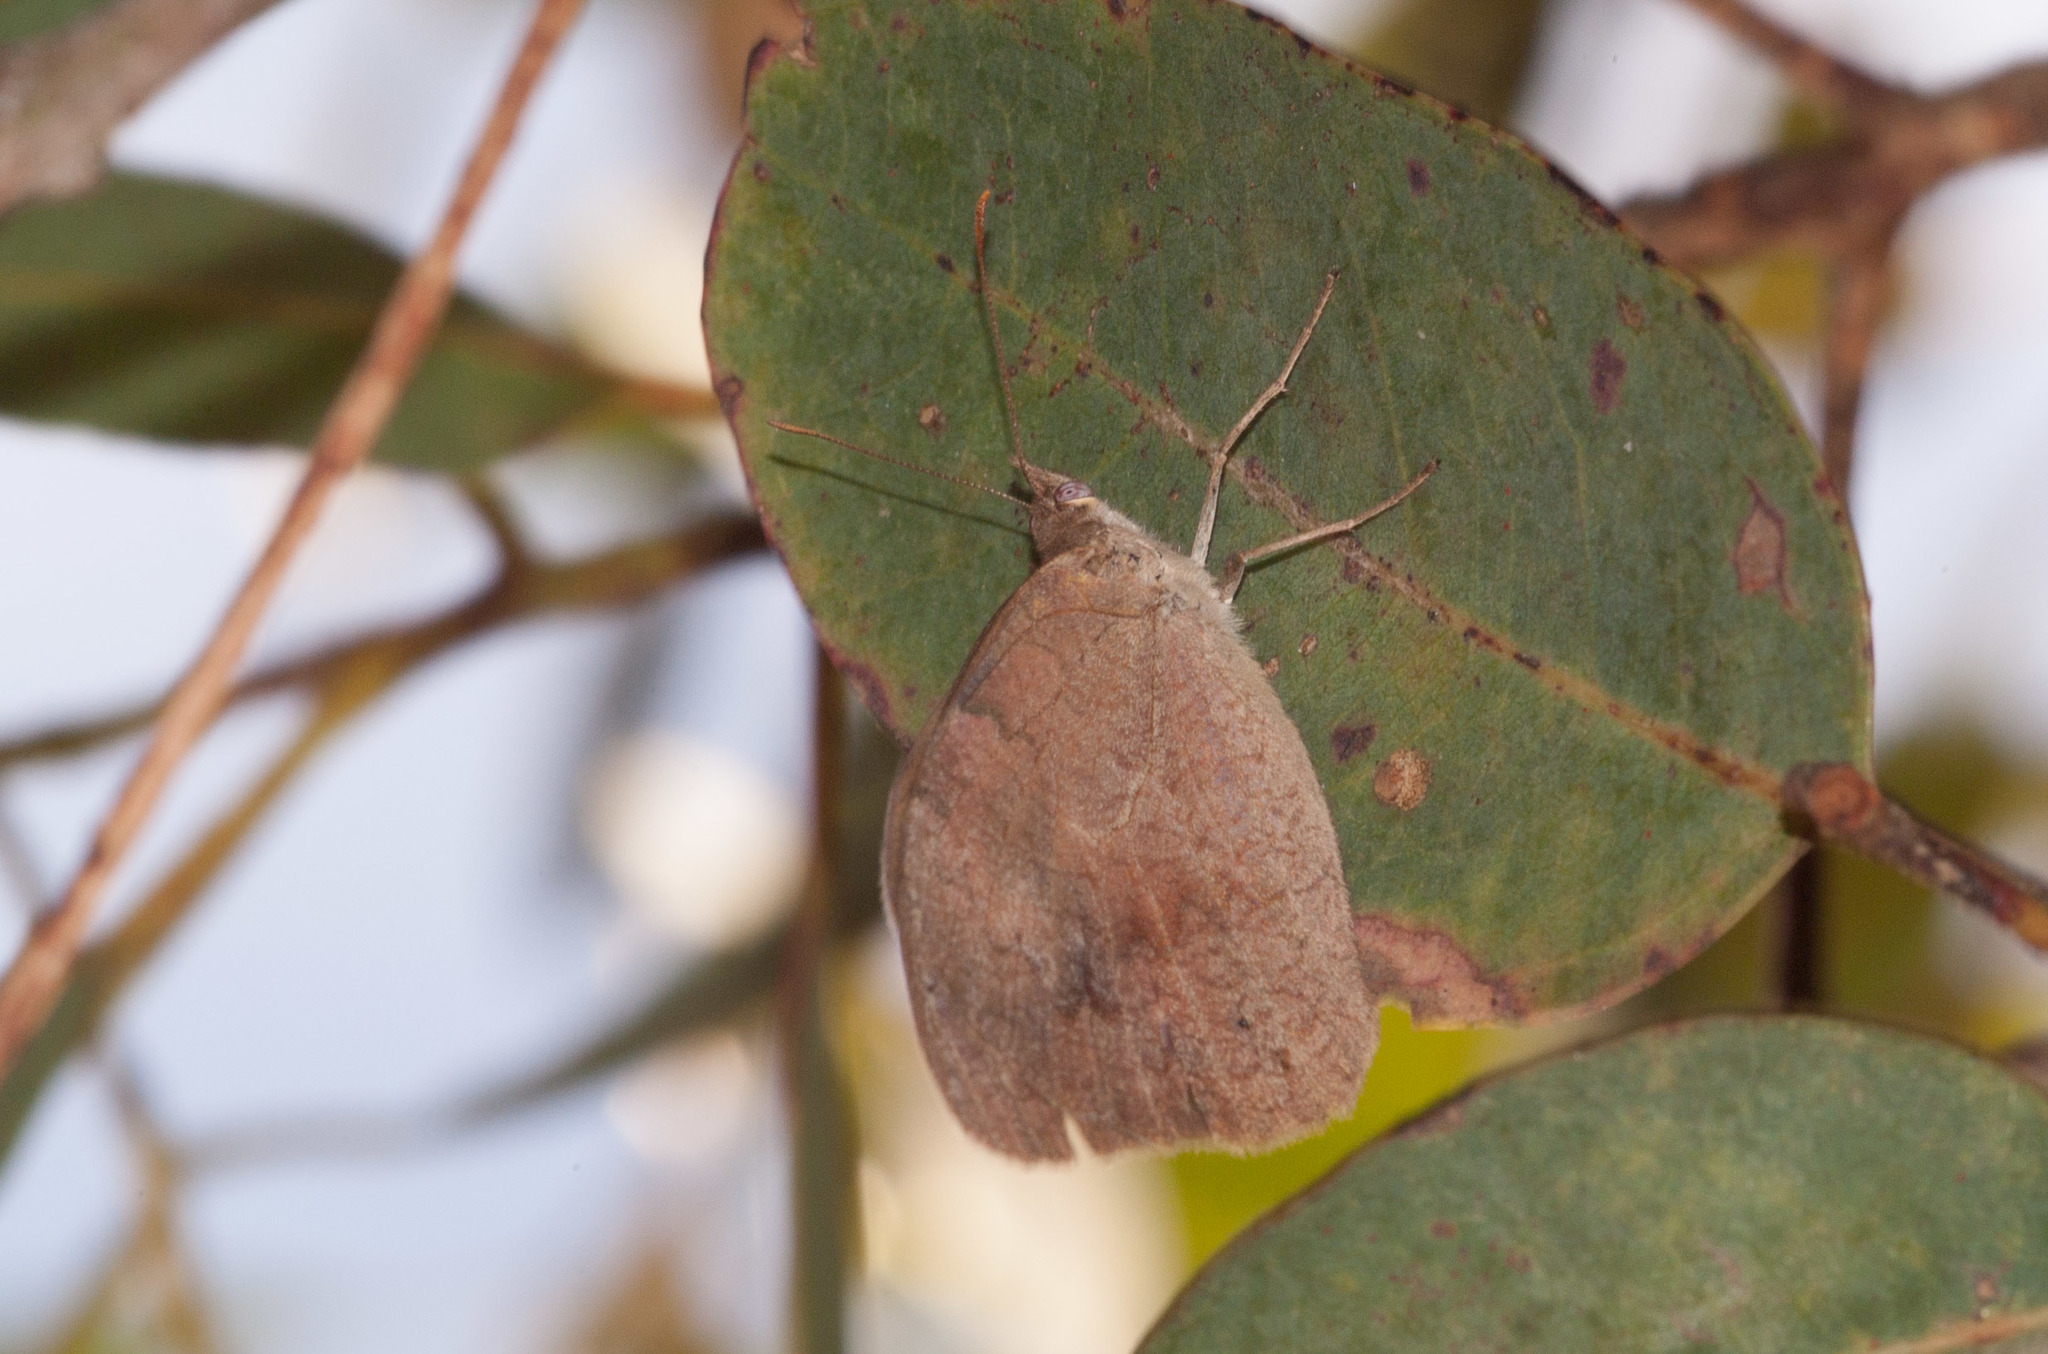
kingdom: Animalia
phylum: Arthropoda
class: Insecta
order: Lepidoptera
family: Nymphalidae
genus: Heteronympha
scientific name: Heteronympha merope
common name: Common brown
